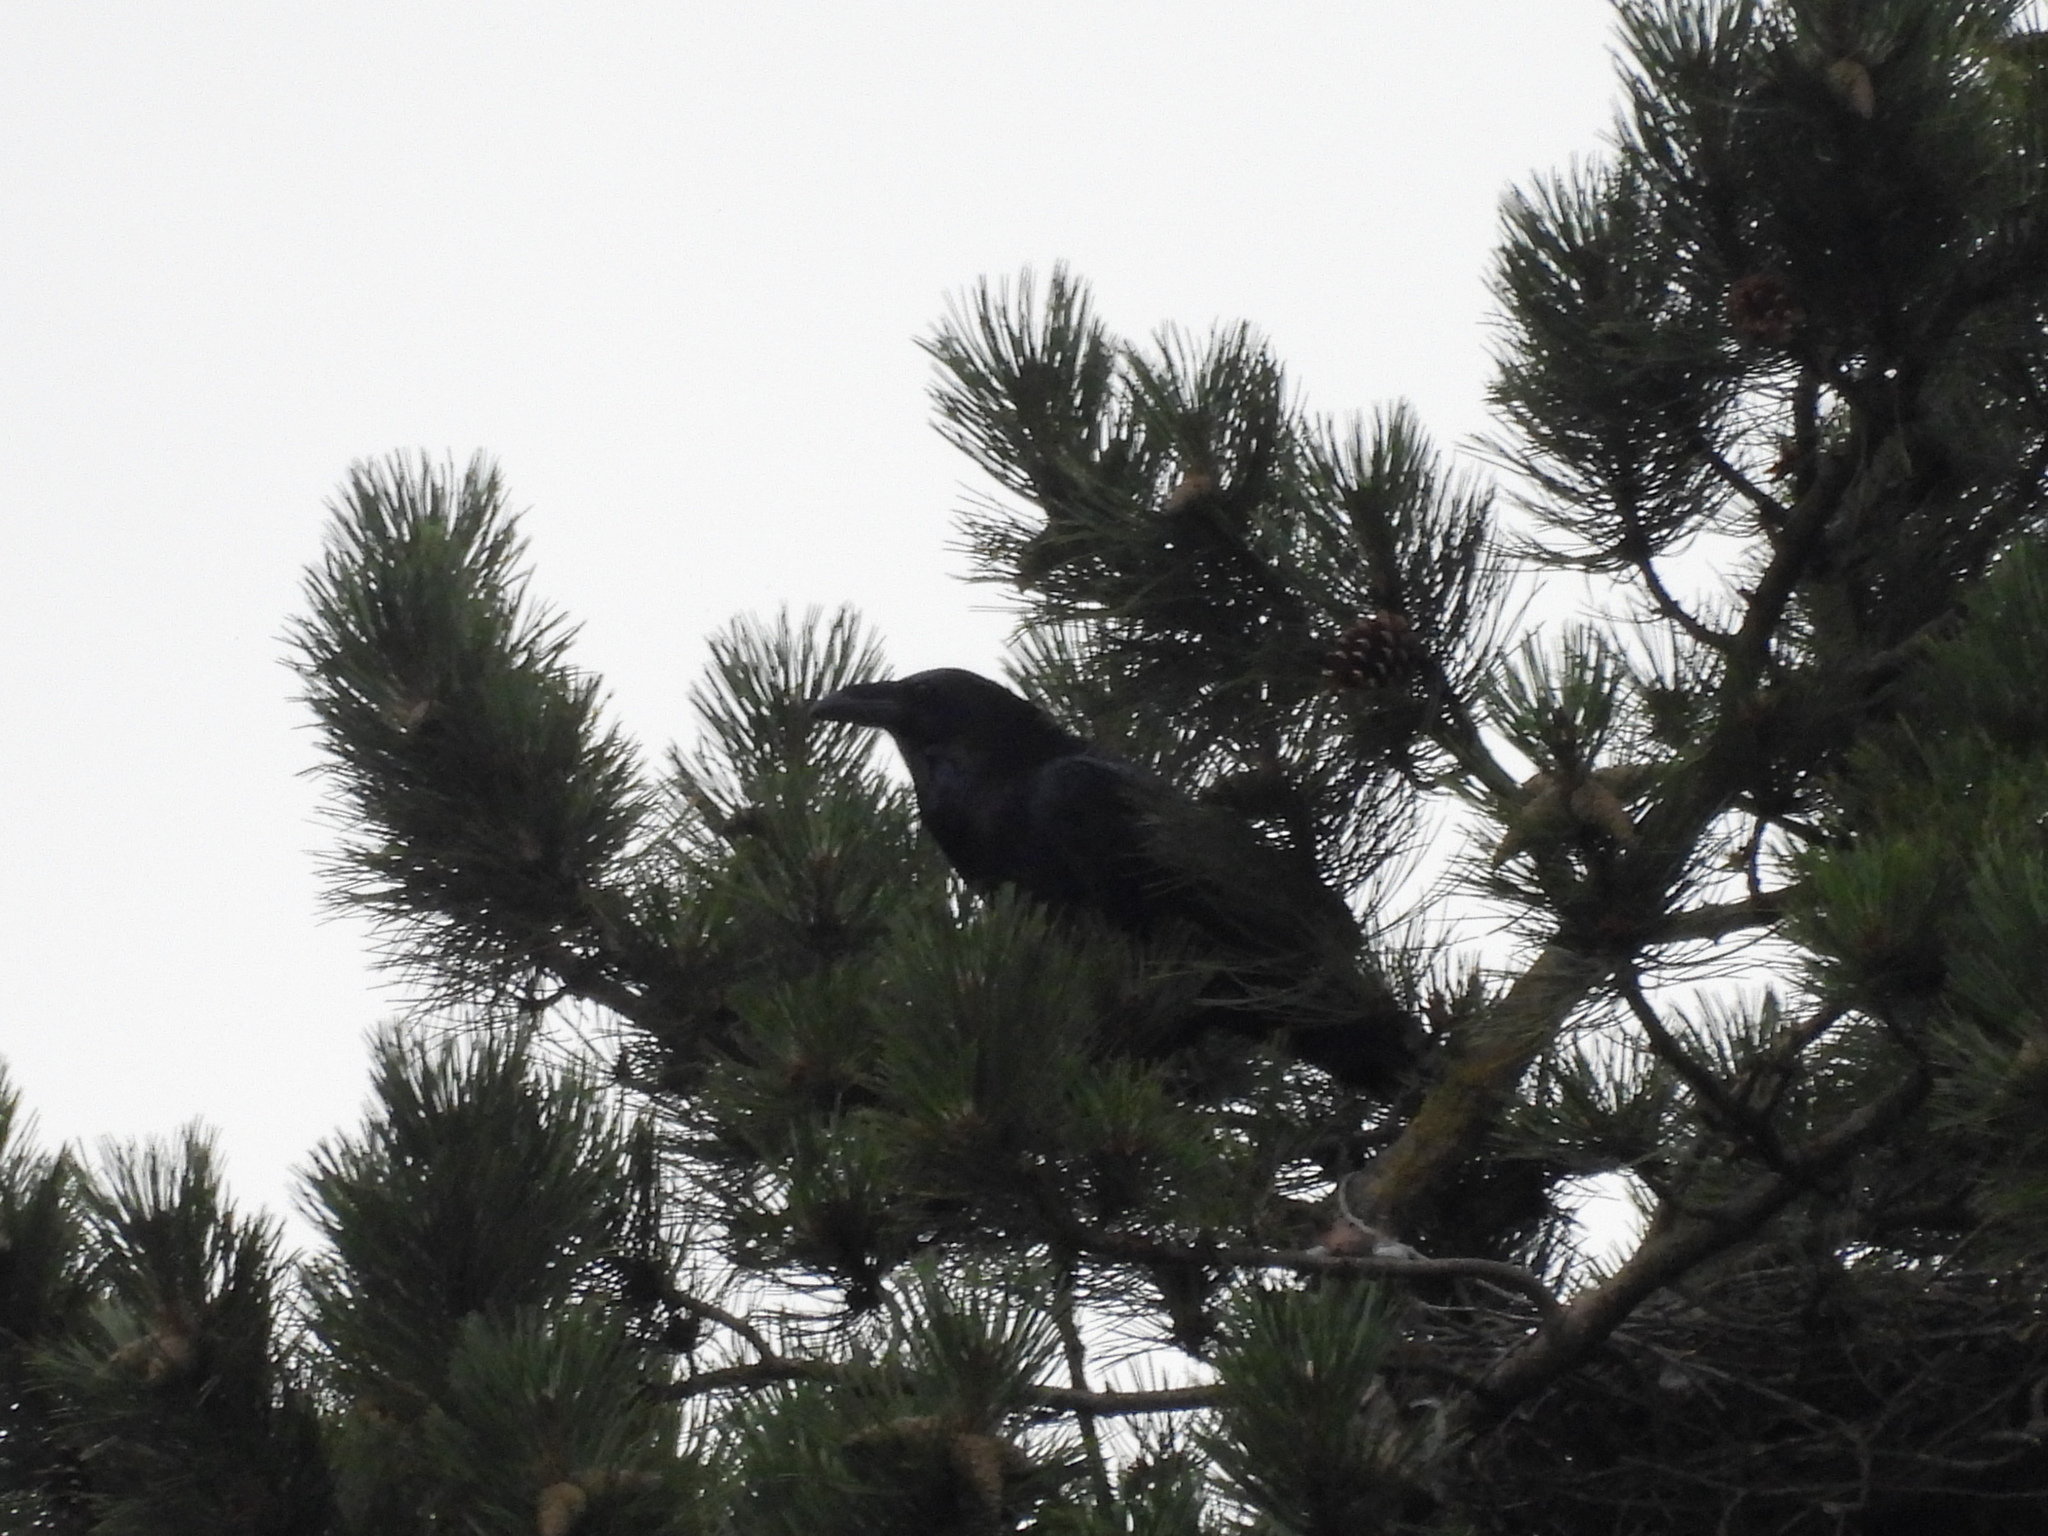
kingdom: Animalia
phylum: Chordata
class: Aves
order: Passeriformes
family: Corvidae
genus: Corvus
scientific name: Corvus corax
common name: Common raven
